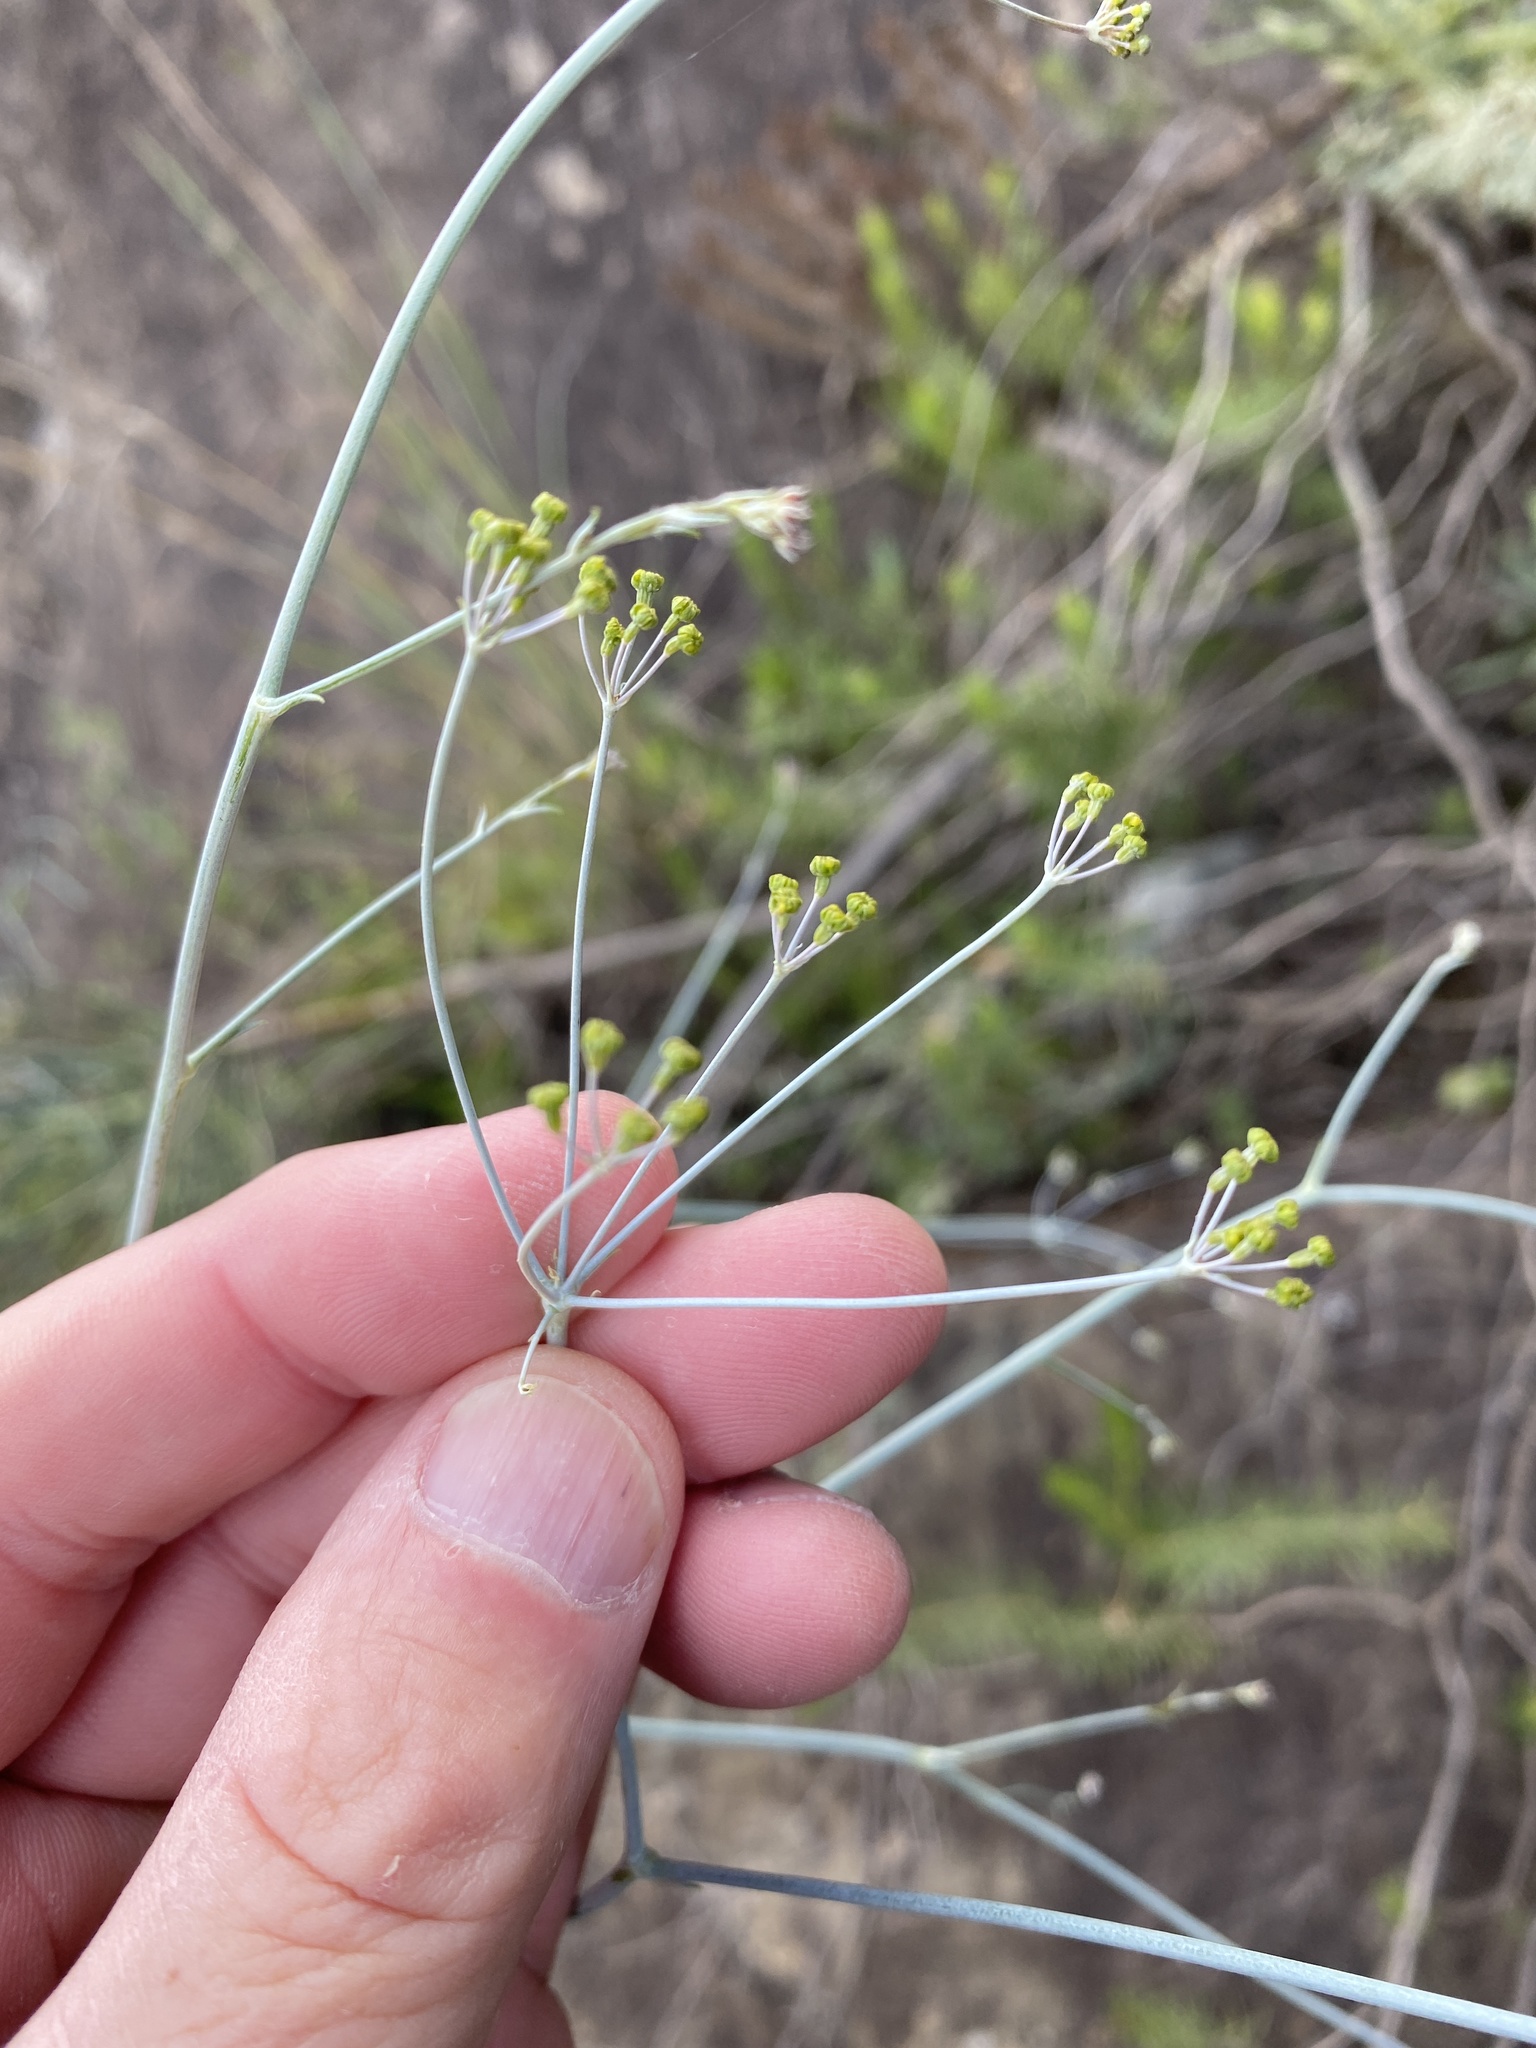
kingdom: Plantae
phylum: Tracheophyta
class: Magnoliopsida
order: Apiales
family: Apiaceae
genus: Anginon
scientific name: Anginon swellendamense
